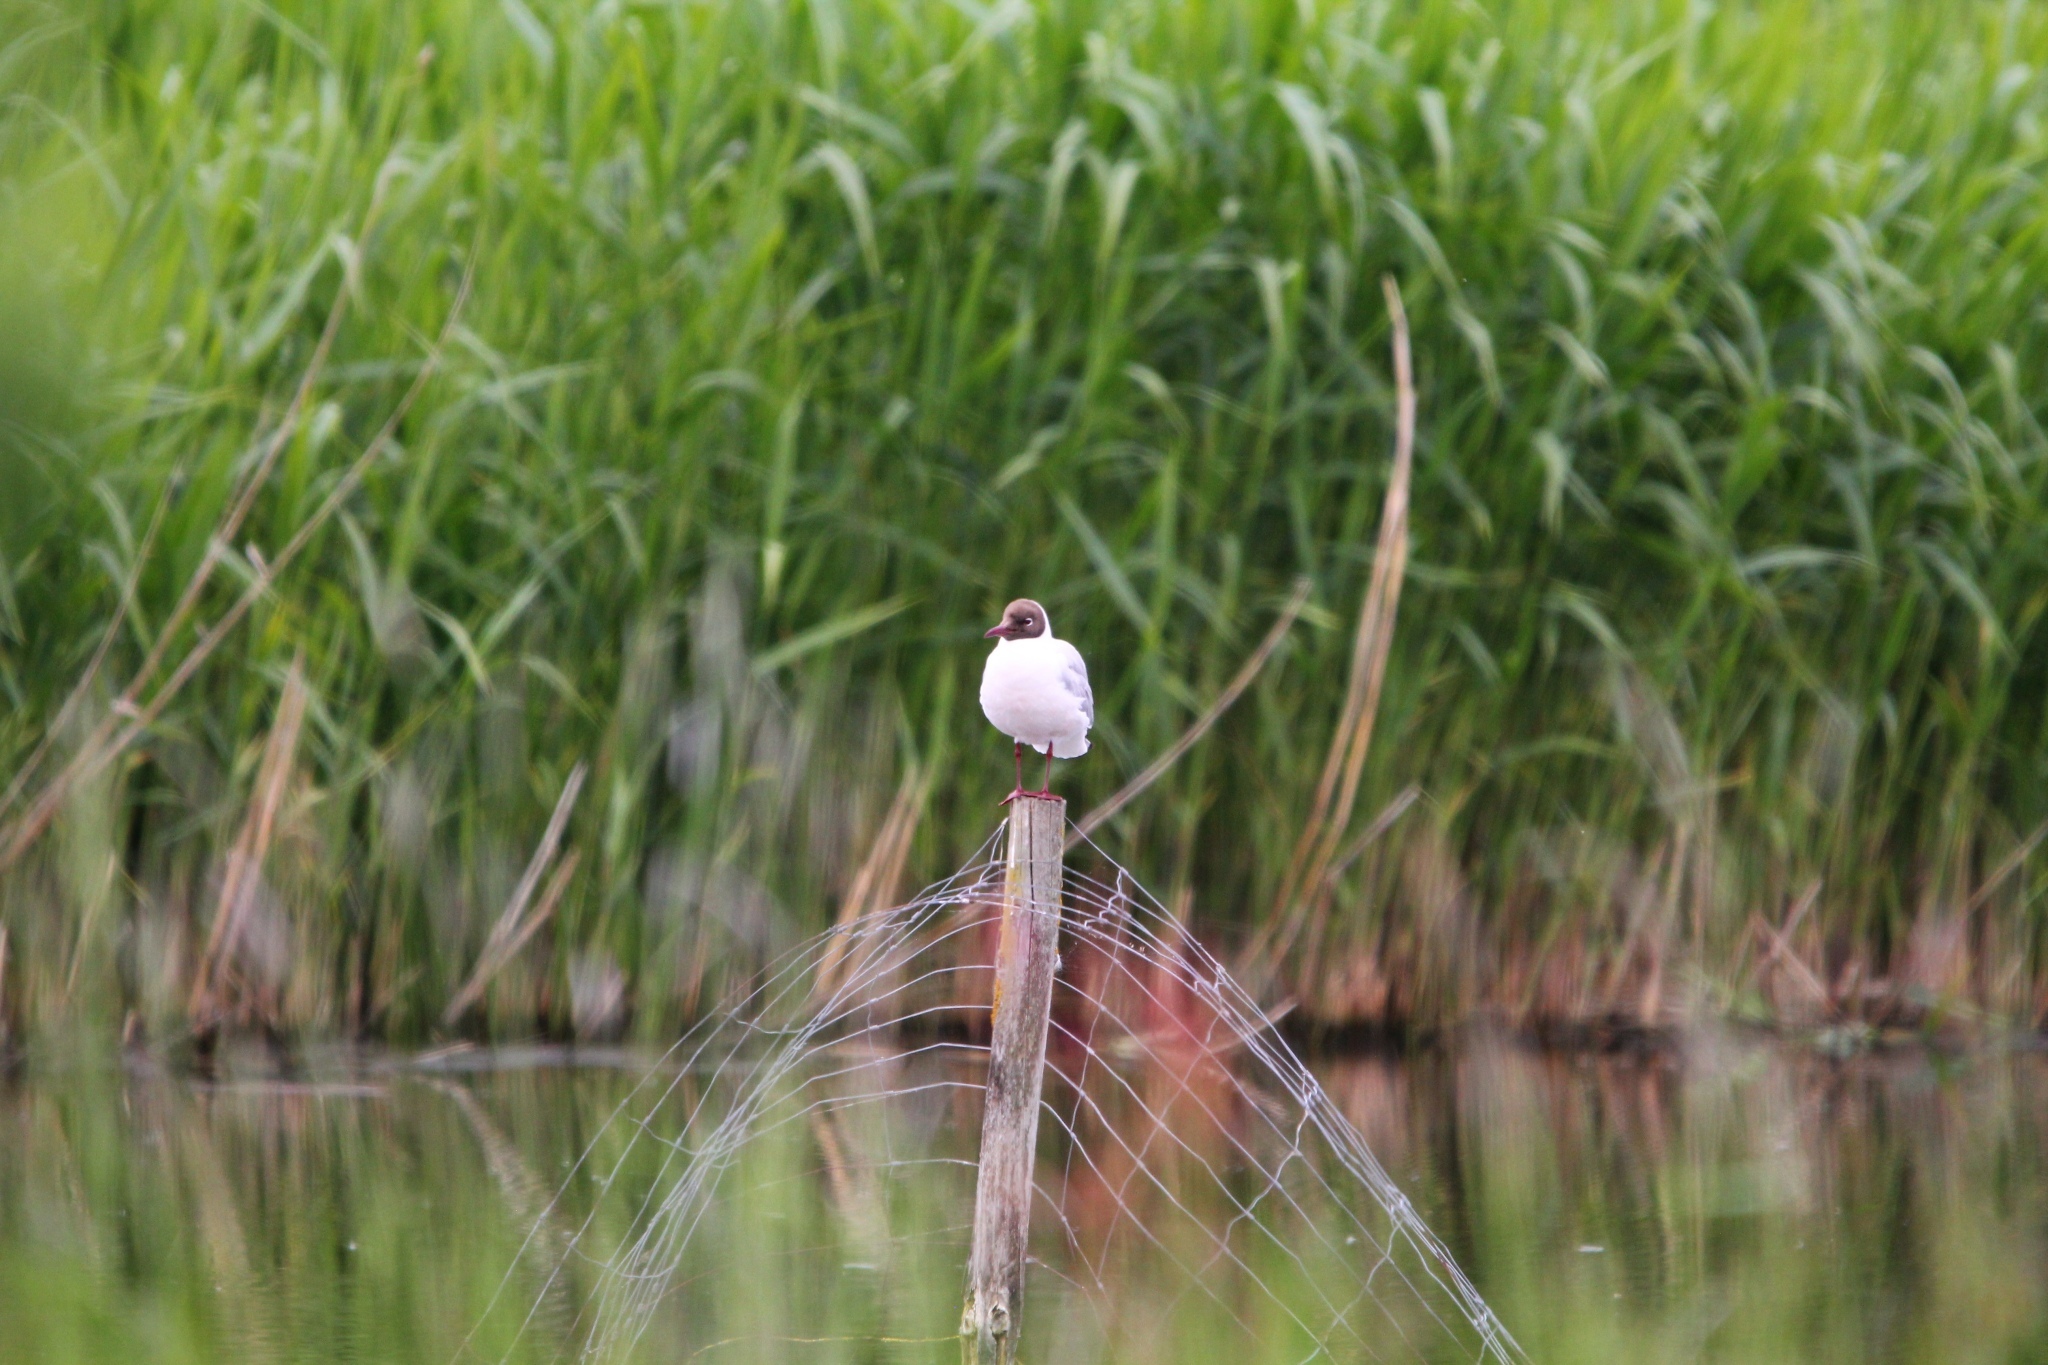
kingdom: Animalia
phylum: Chordata
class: Aves
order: Charadriiformes
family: Laridae
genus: Chroicocephalus
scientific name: Chroicocephalus ridibundus
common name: Black-headed gull
